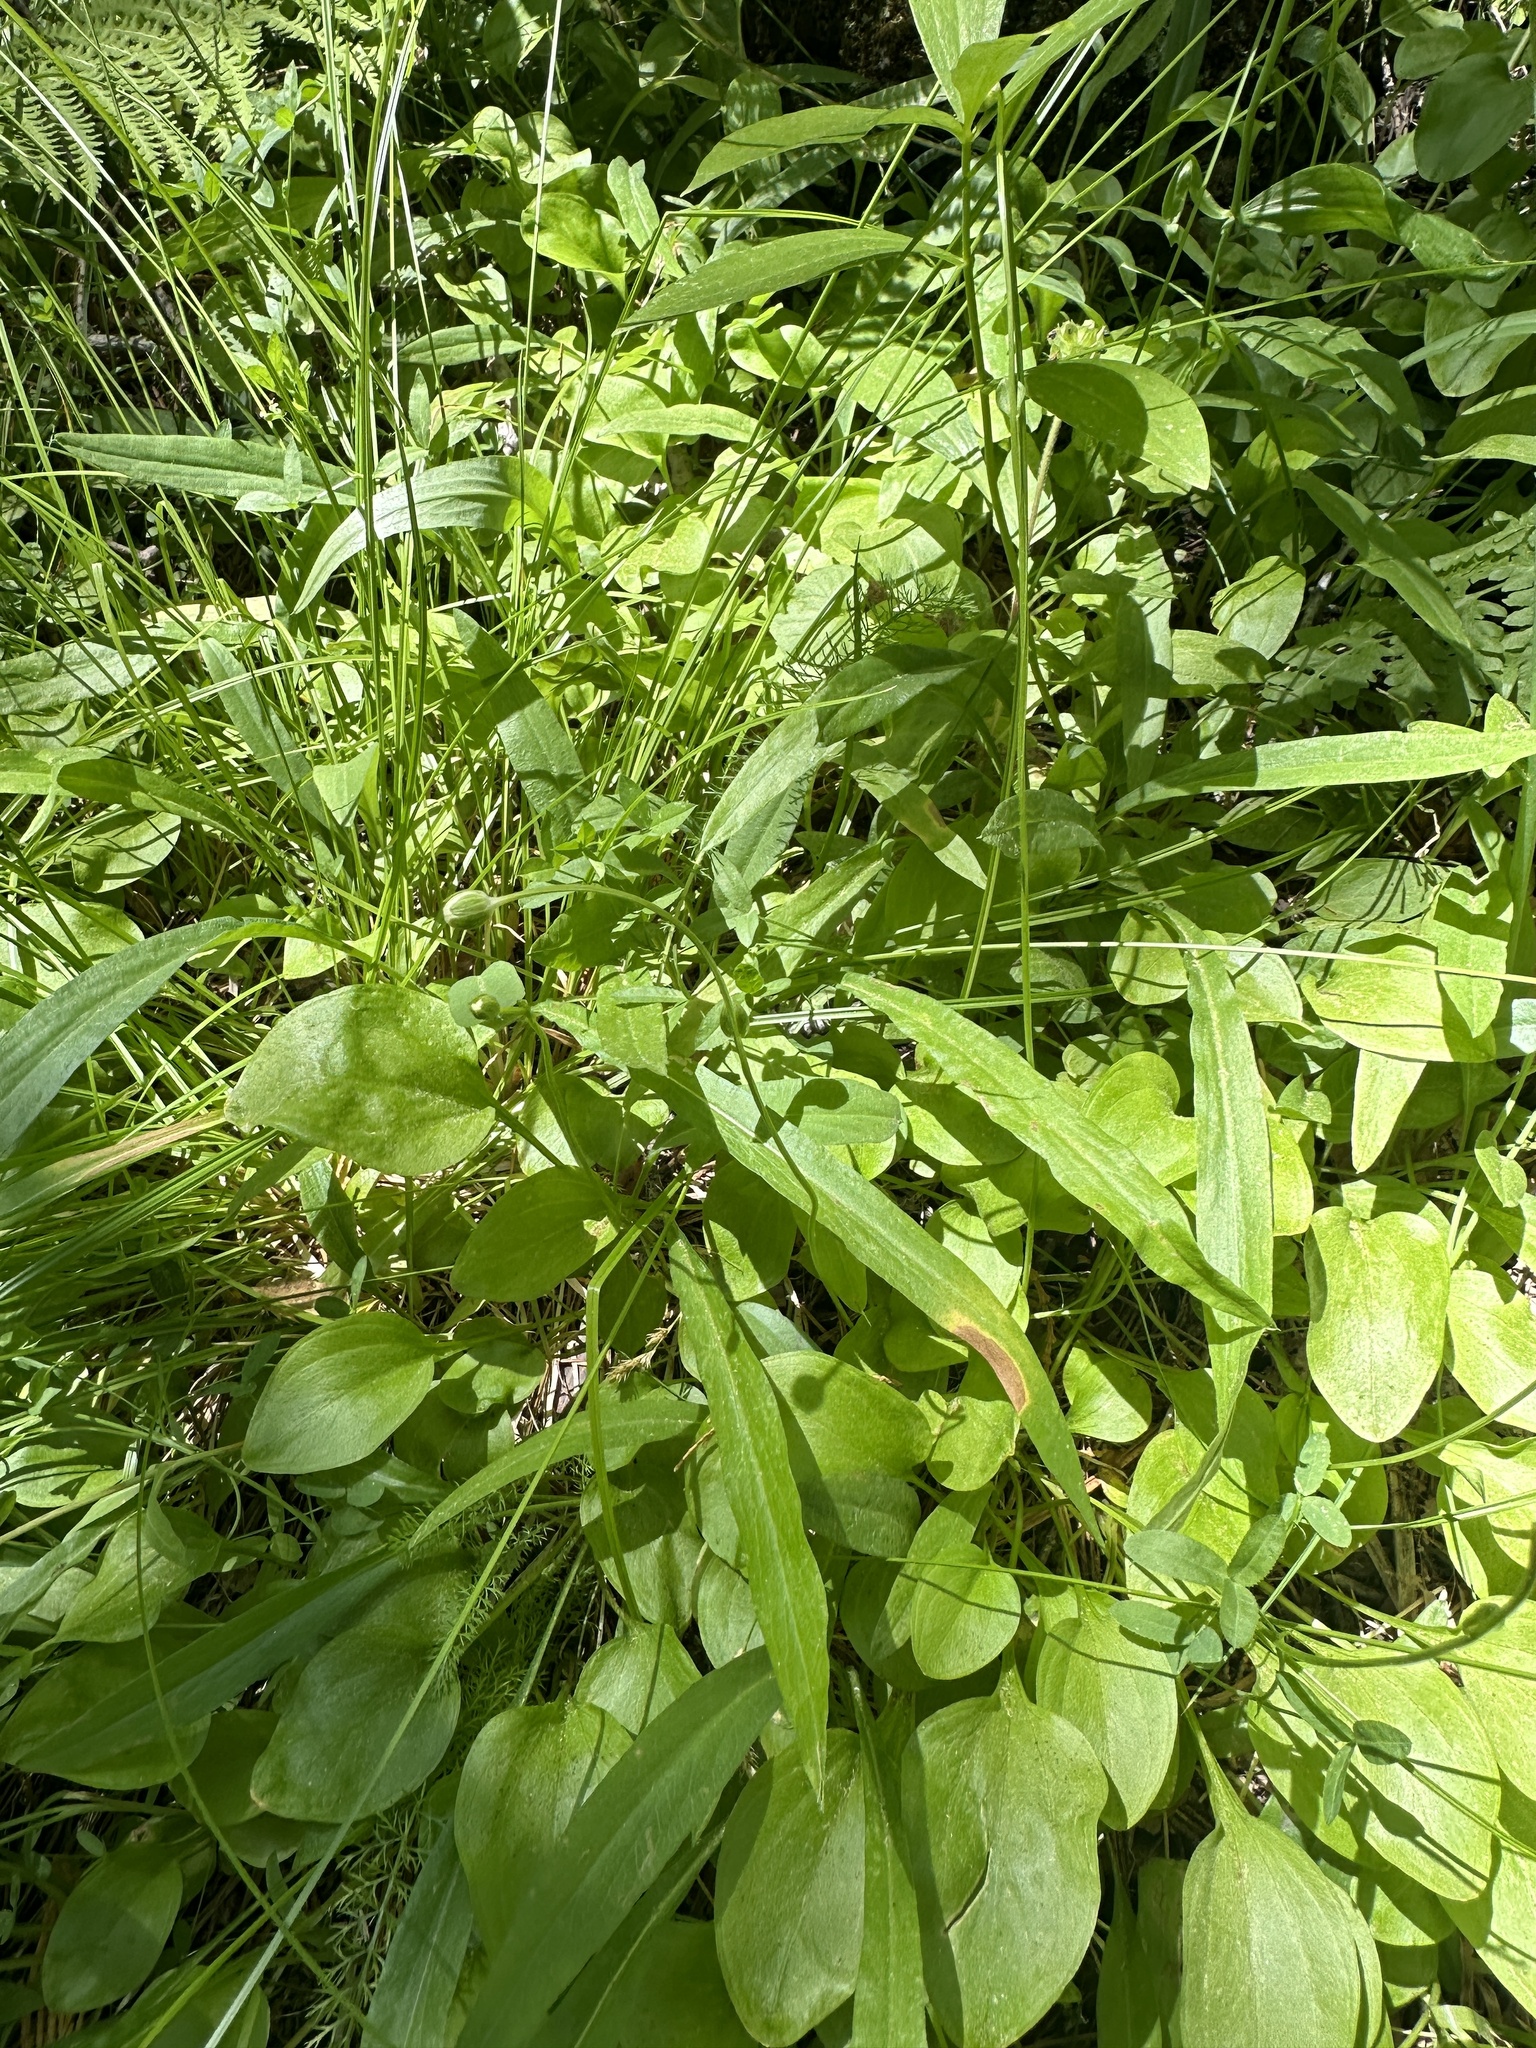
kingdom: Plantae
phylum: Tracheophyta
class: Magnoliopsida
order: Celastrales
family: Parnassiaceae
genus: Parnassia
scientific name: Parnassia palustris
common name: Grass-of-parnassus
